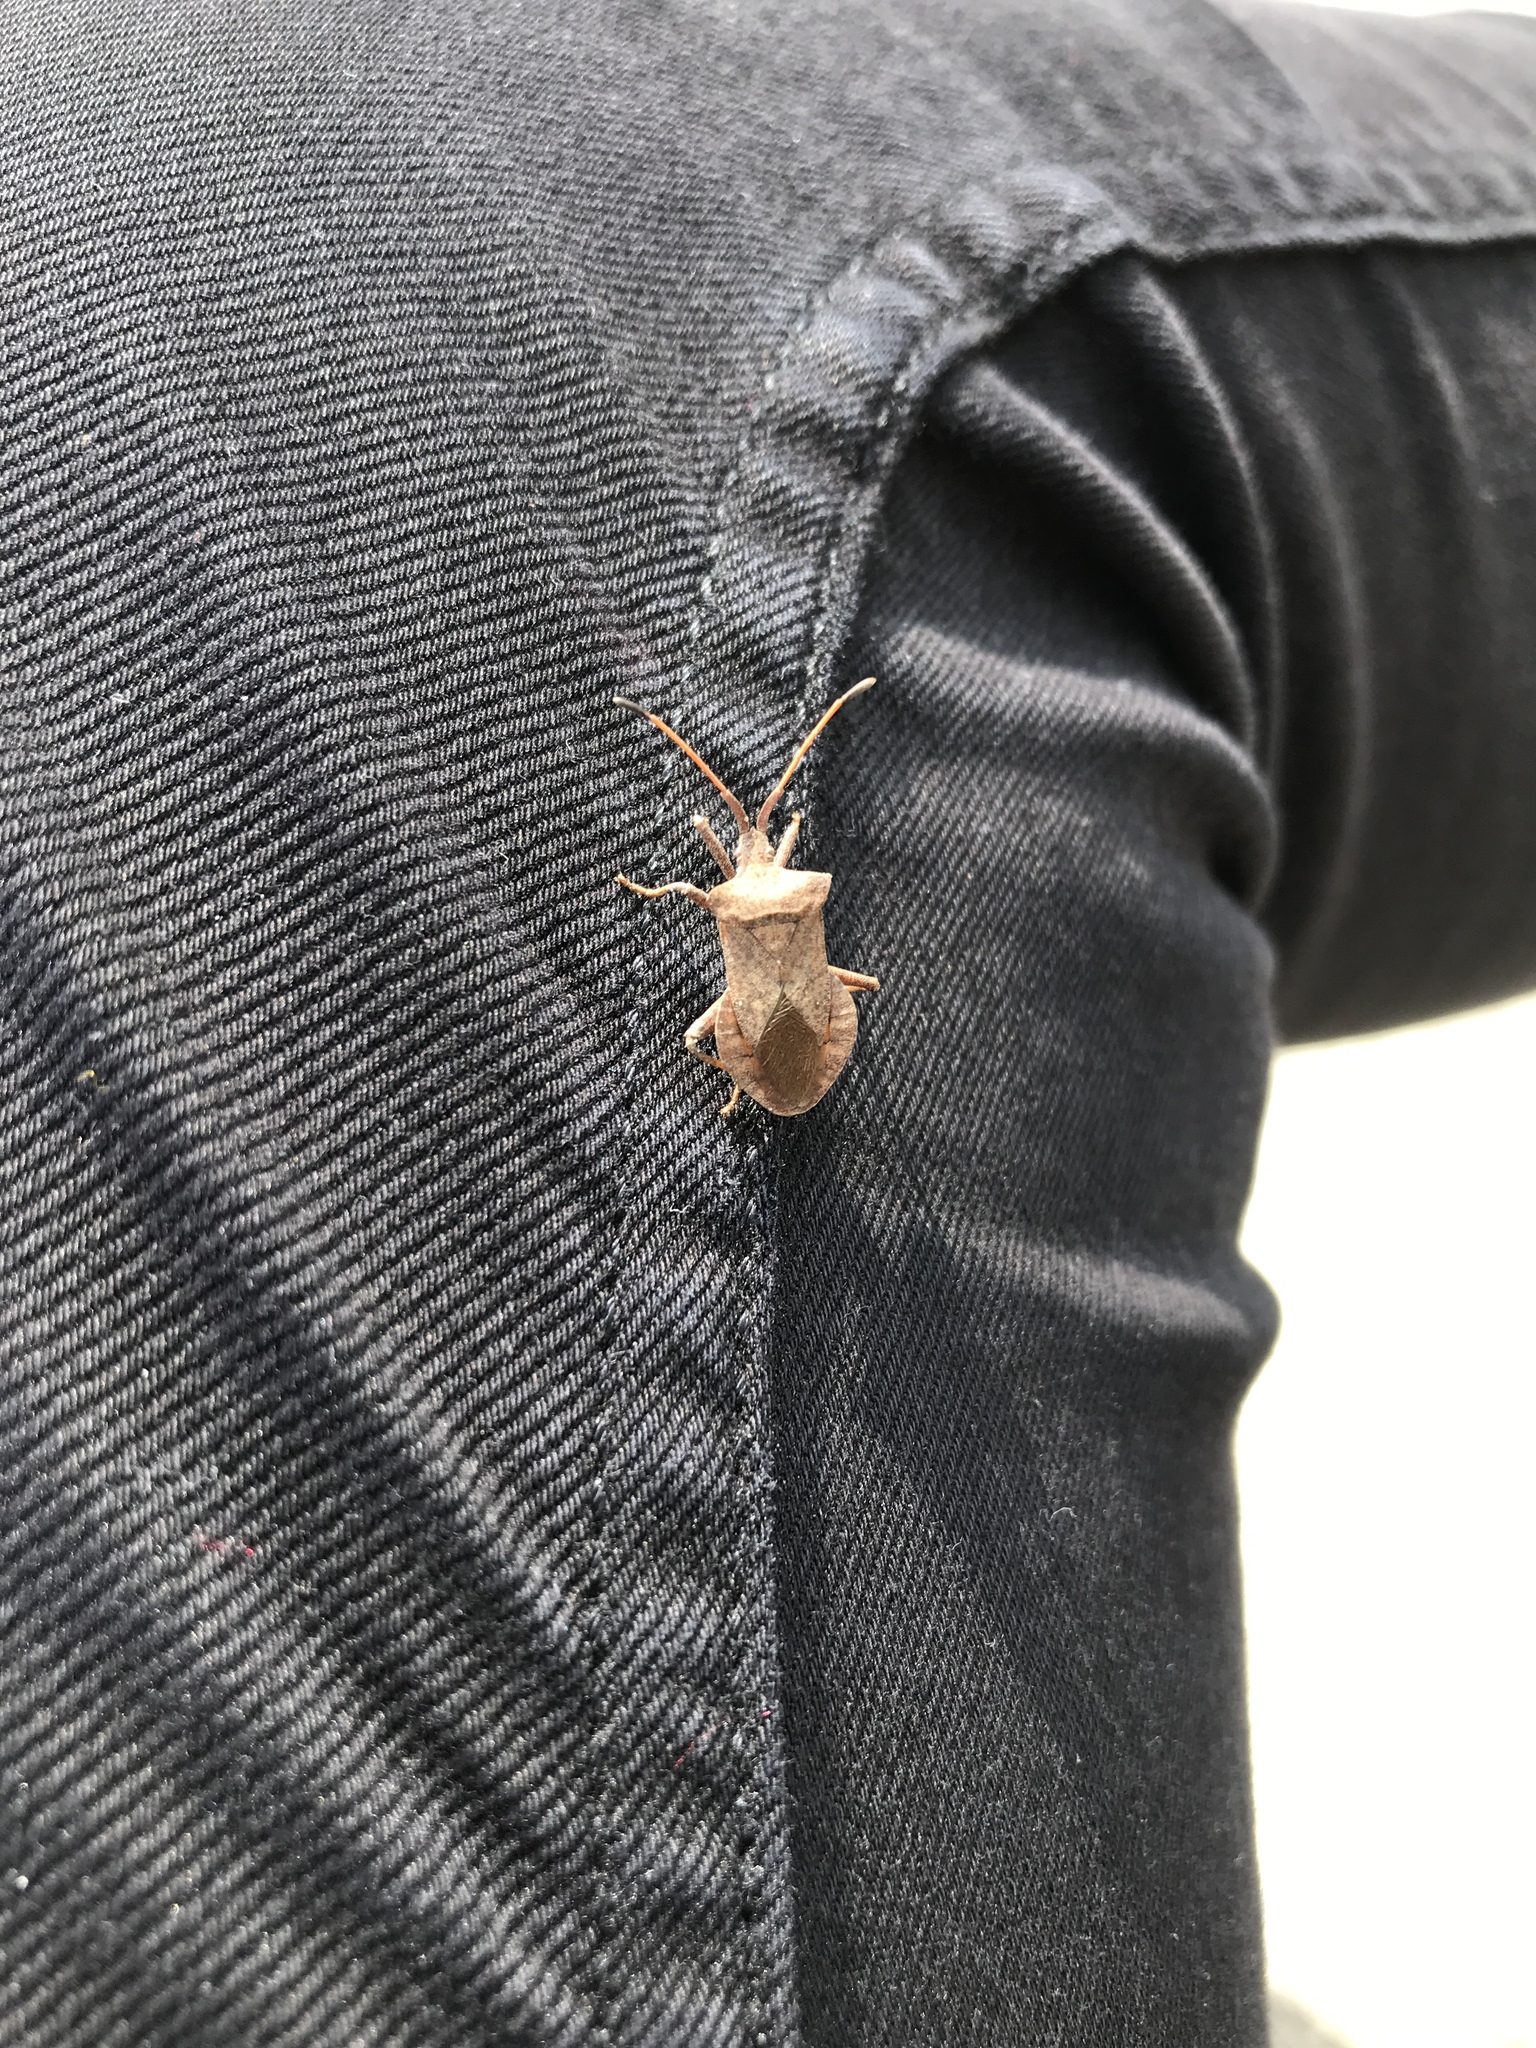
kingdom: Animalia
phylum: Arthropoda
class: Insecta
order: Hemiptera
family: Coreidae
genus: Coreus
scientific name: Coreus marginatus
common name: Dock bug
